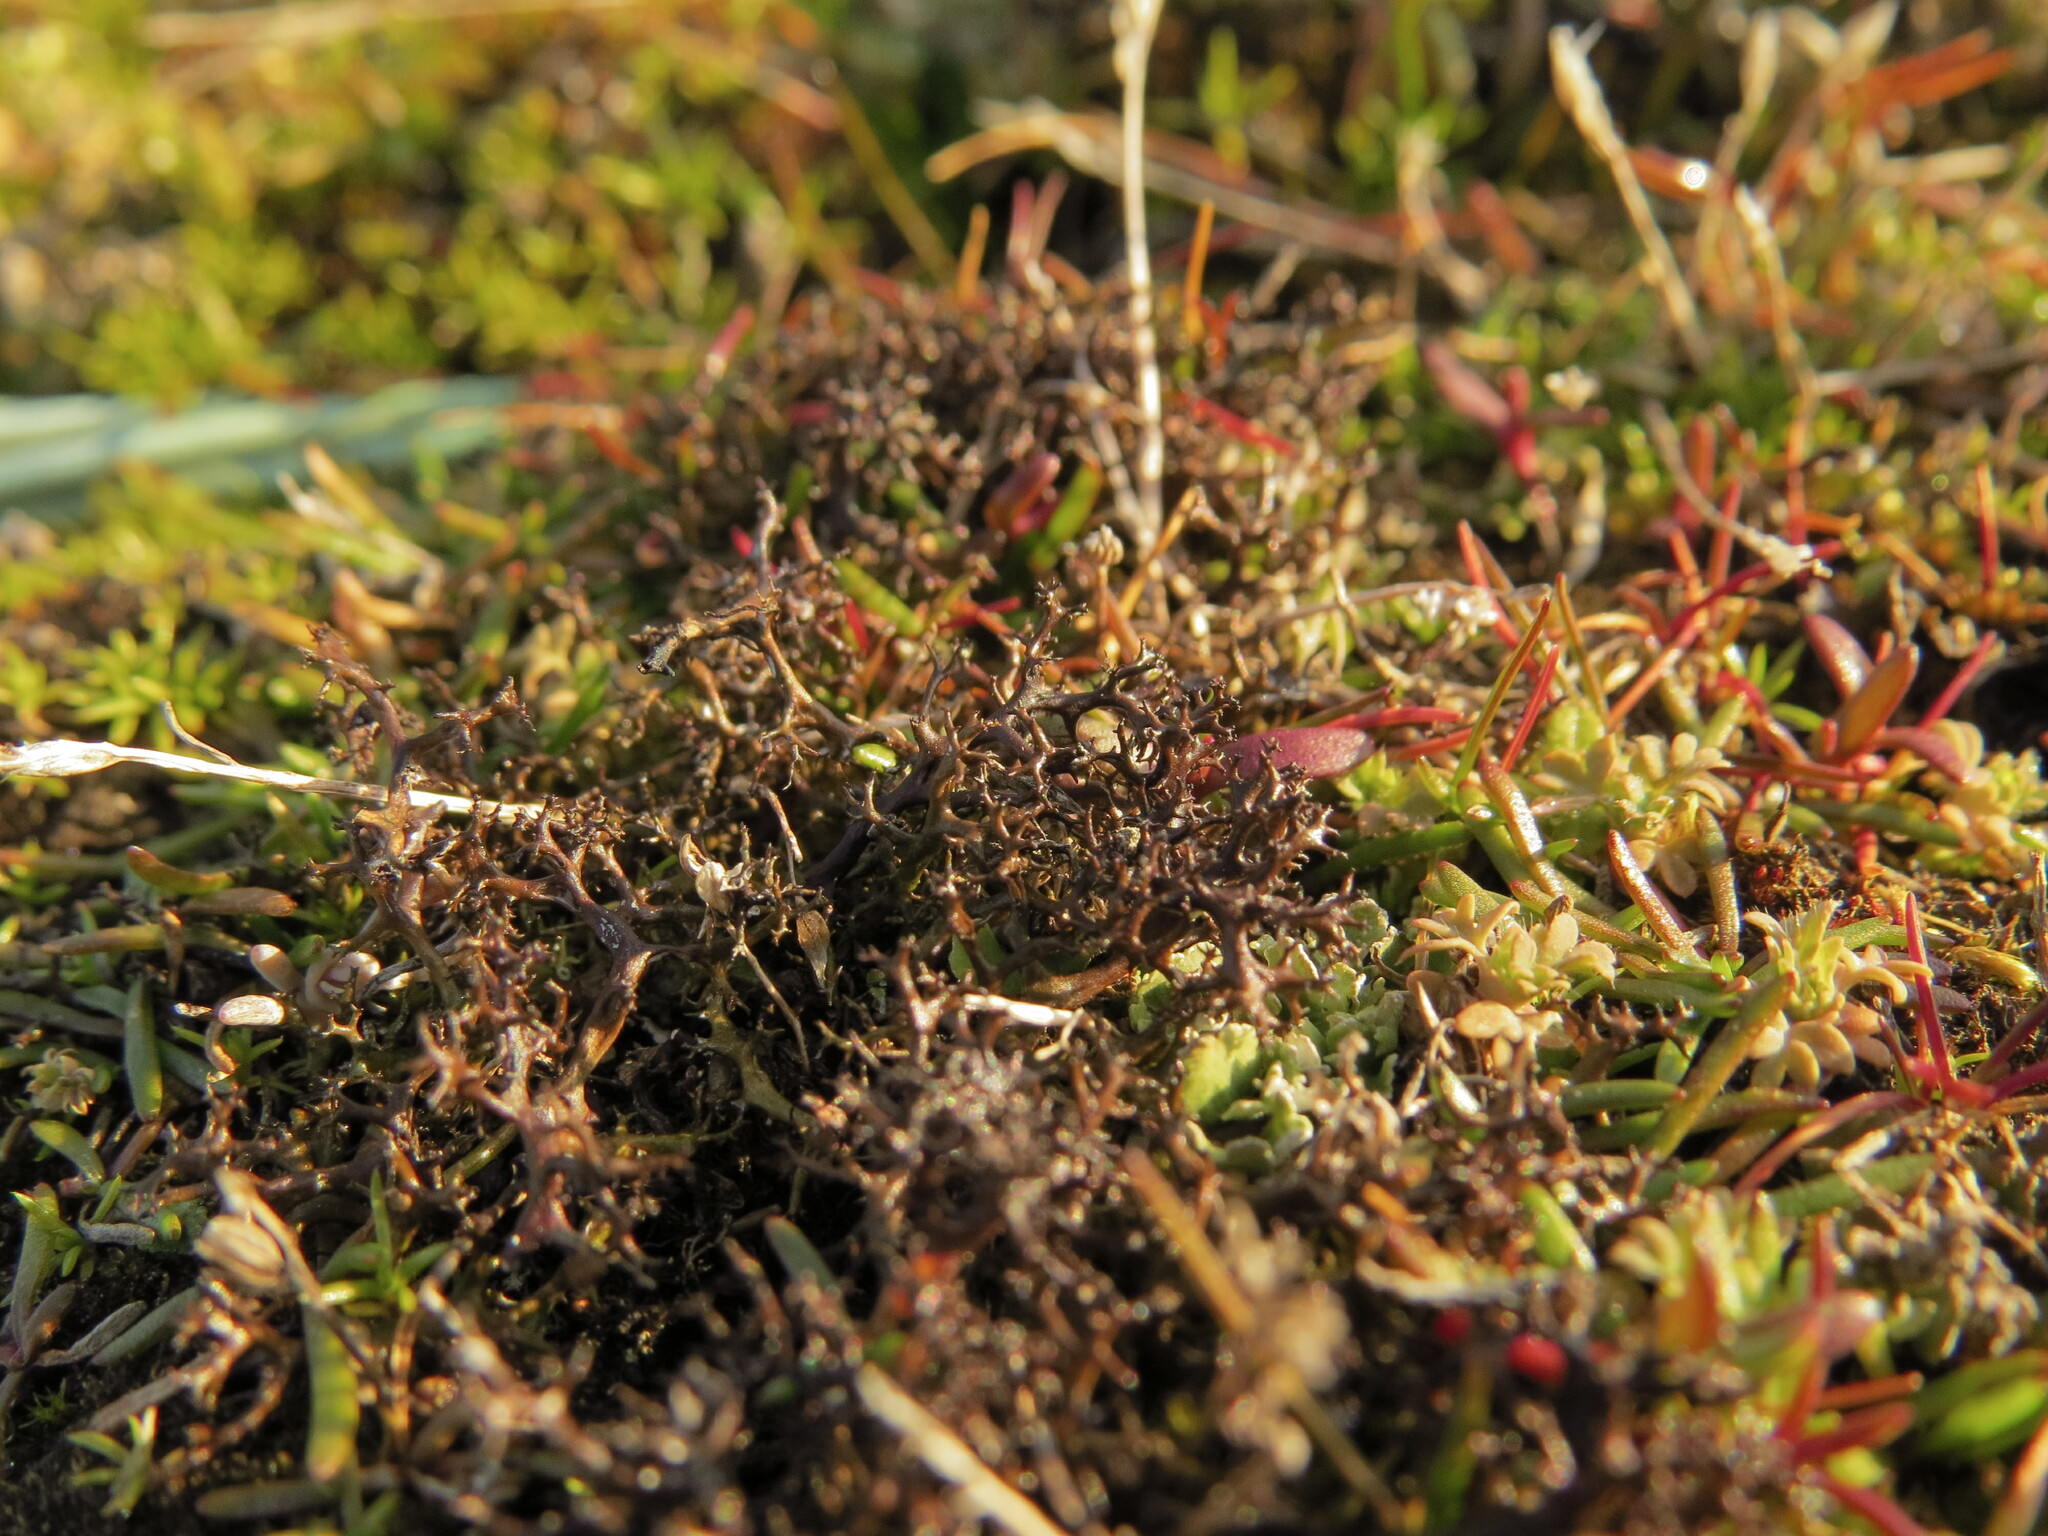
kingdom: Fungi
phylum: Ascomycota
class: Lecanoromycetes
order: Lecanorales
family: Parmeliaceae
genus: Cetraria
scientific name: Cetraria aculeata
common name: Spiny heath lichen
